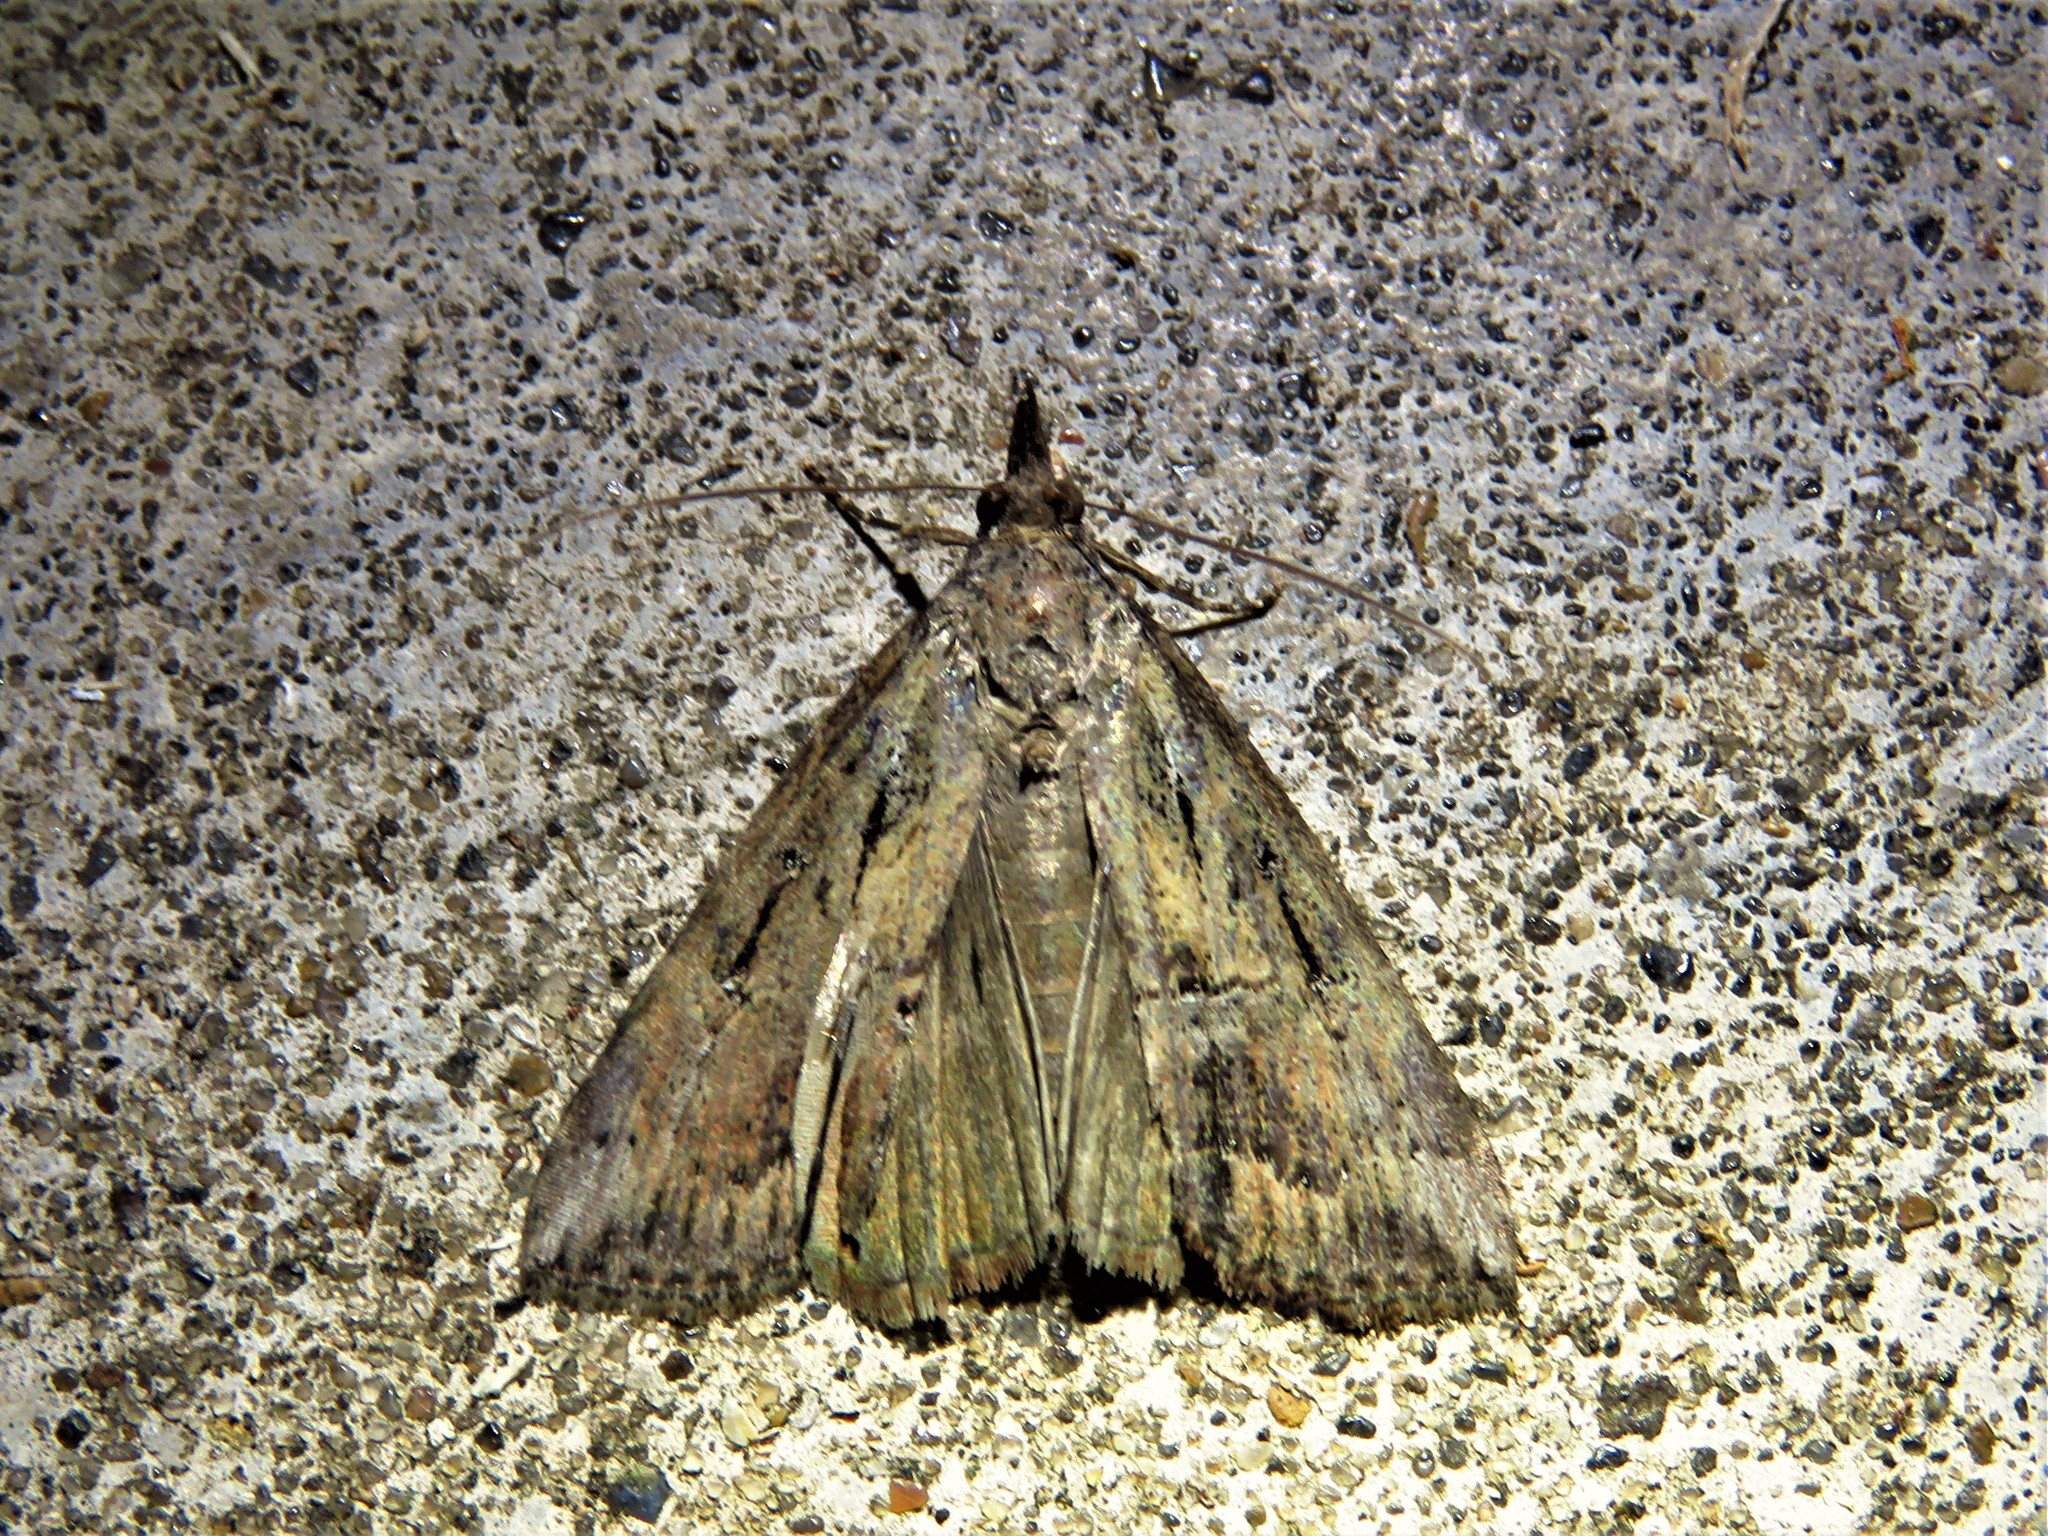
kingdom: Animalia
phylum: Arthropoda
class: Insecta
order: Lepidoptera
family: Erebidae
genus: Hypena
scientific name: Hypena scabra
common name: Green cloverworm
